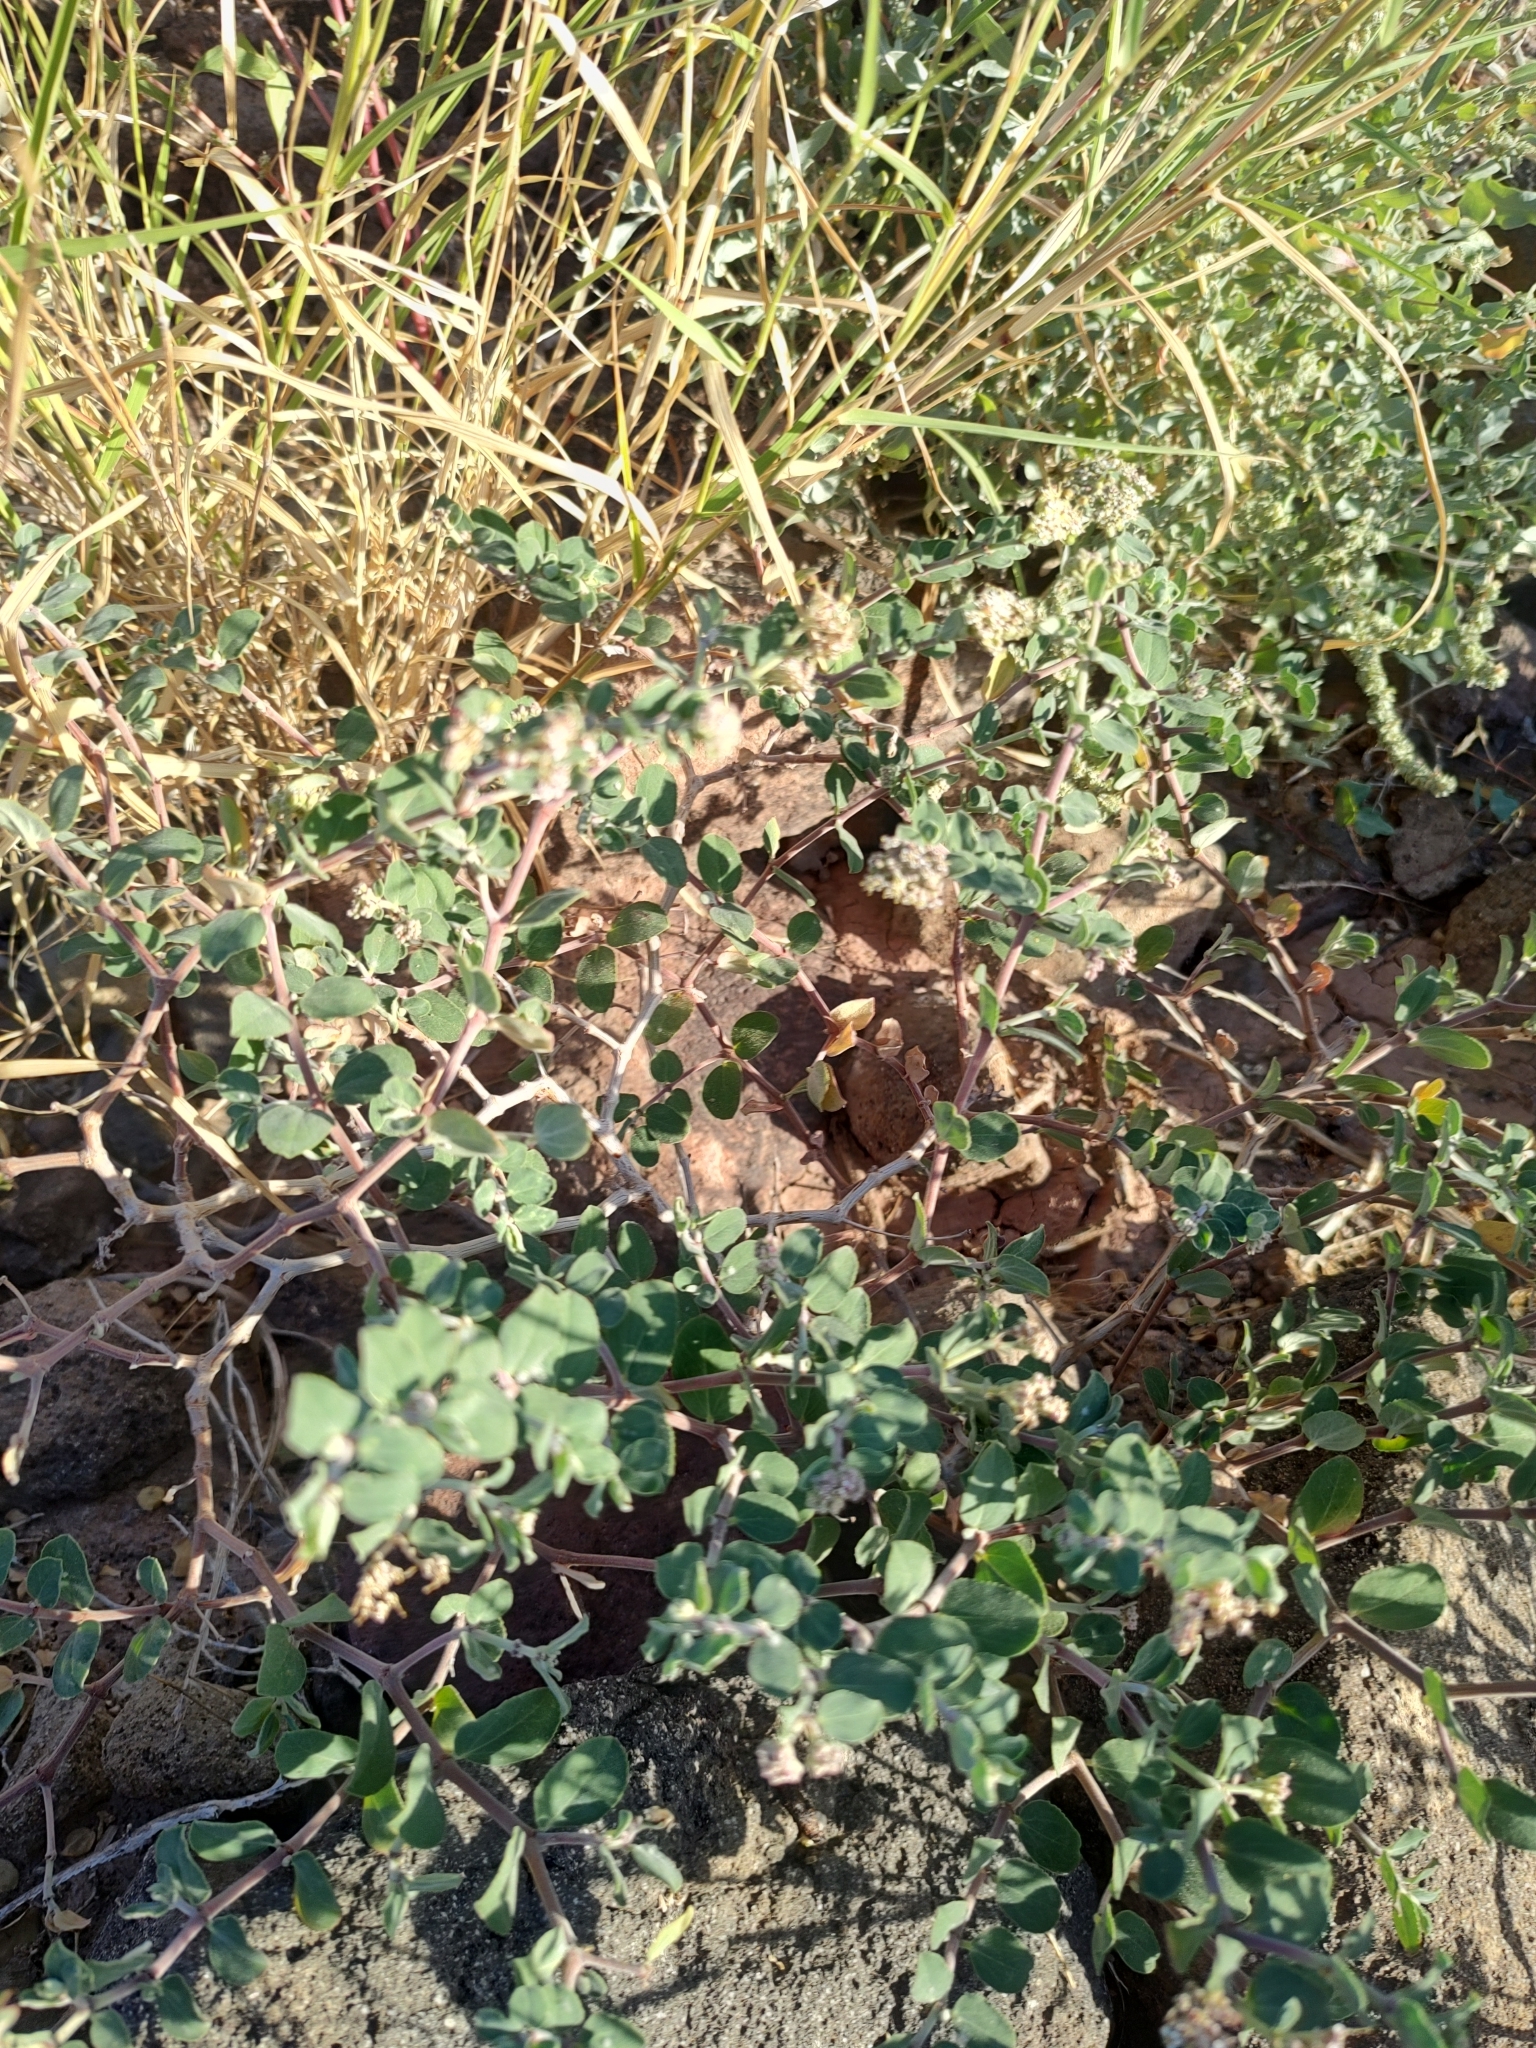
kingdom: Plantae
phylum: Tracheophyta
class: Magnoliopsida
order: Malpighiales
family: Euphorbiaceae
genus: Euphorbia
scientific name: Euphorbia tomentulosa
